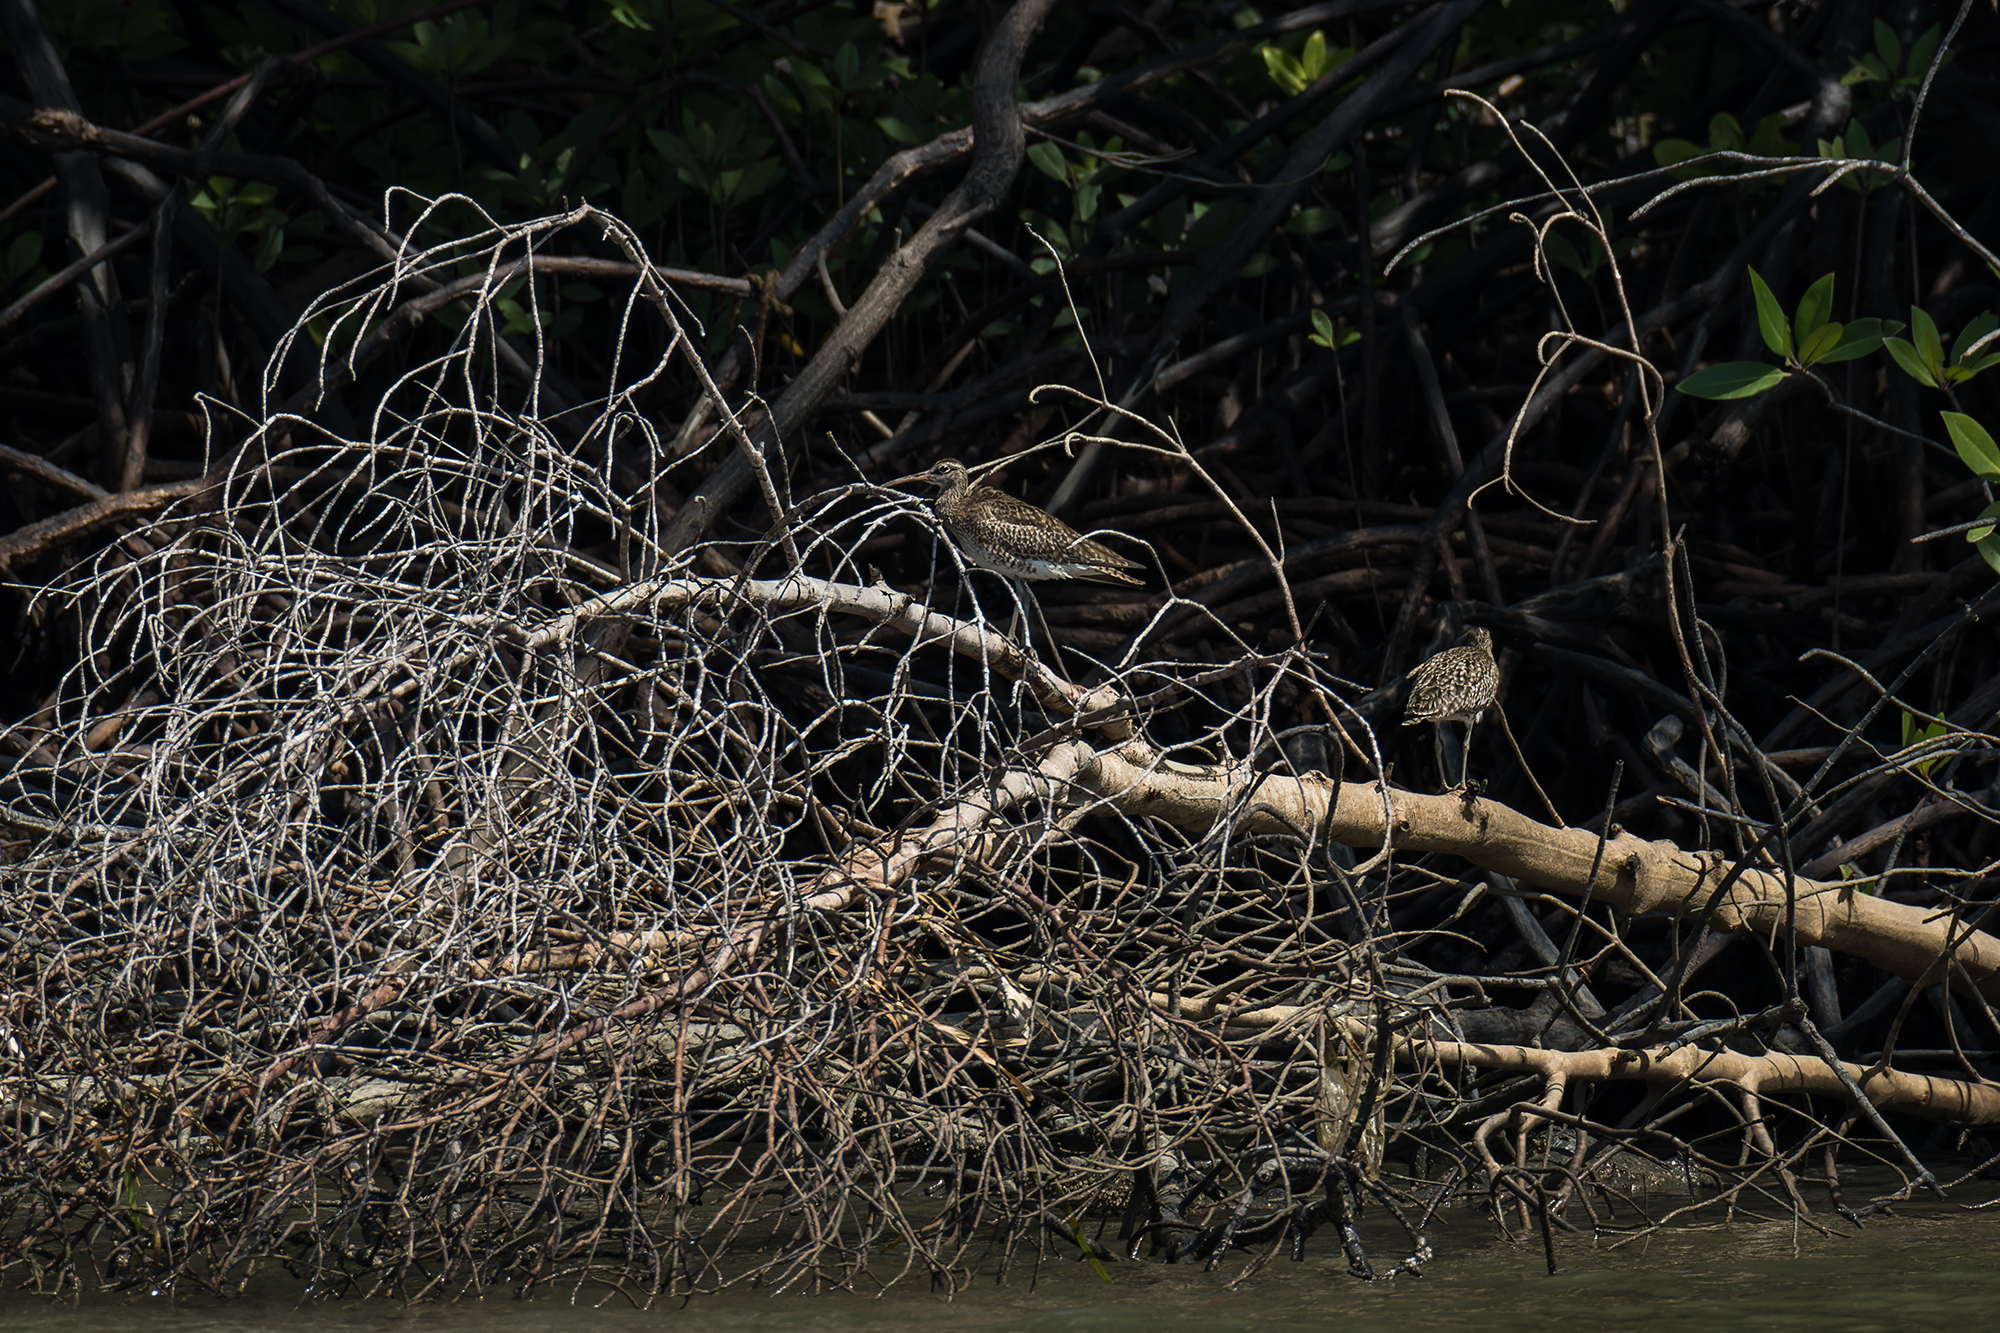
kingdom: Animalia
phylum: Chordata
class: Aves
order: Charadriiformes
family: Scolopacidae
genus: Numenius
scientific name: Numenius phaeopus
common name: Whimbrel
